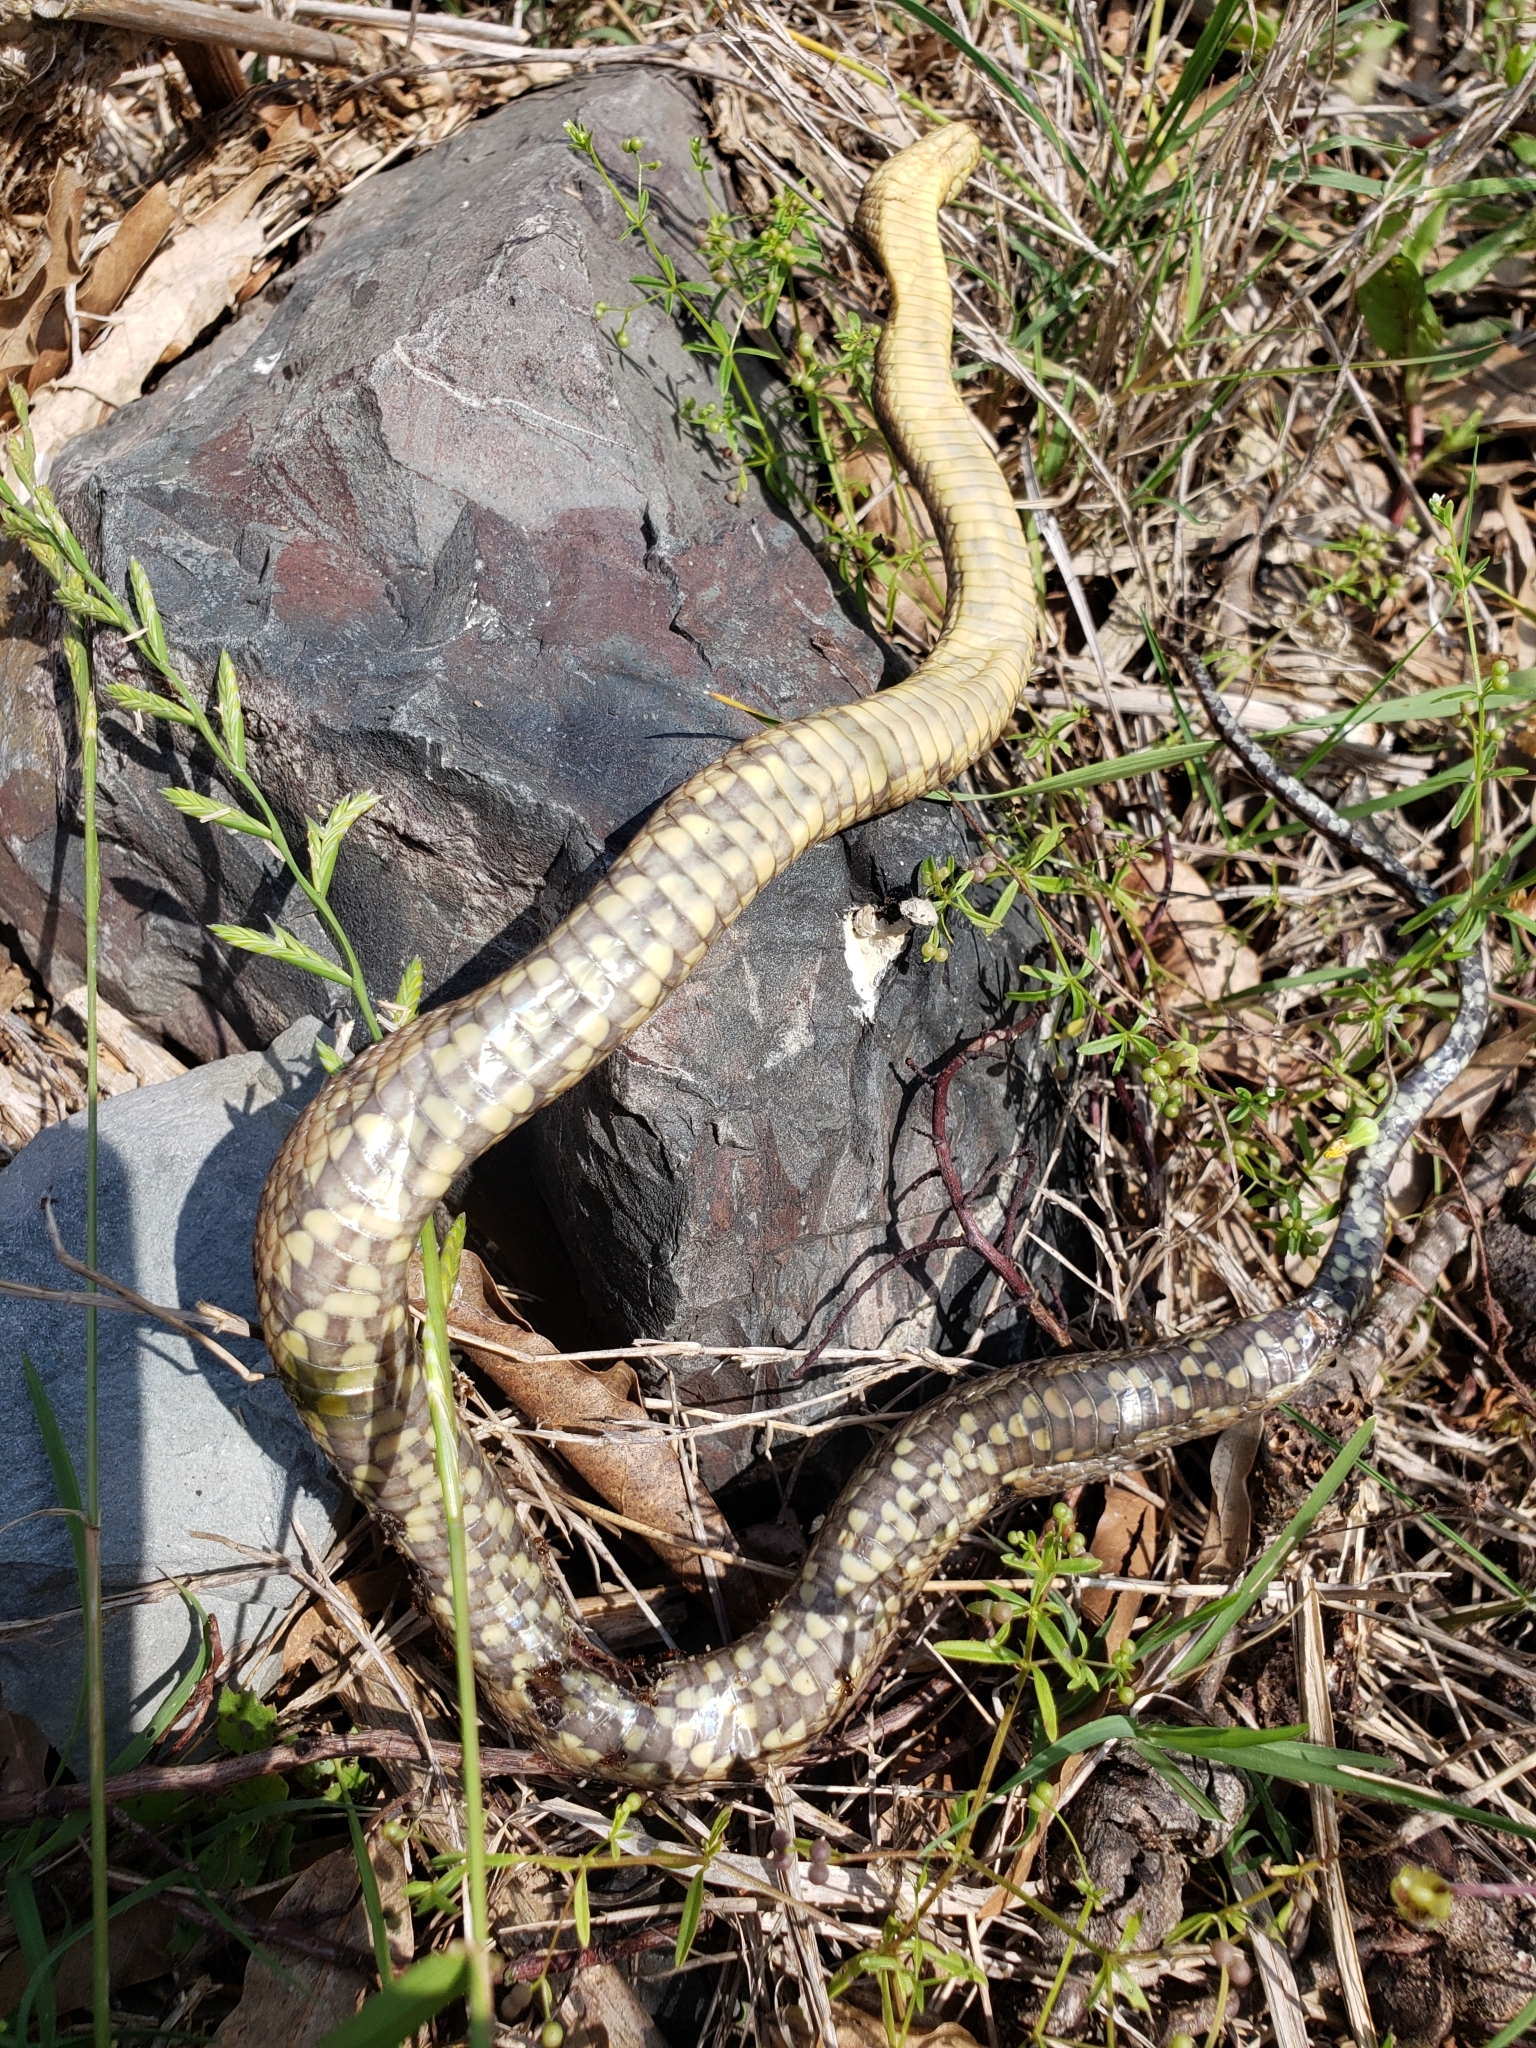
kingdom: Animalia
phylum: Chordata
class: Squamata
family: Colubridae
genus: Nerodia
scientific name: Nerodia cyclopion
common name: Mississippi green water snake
